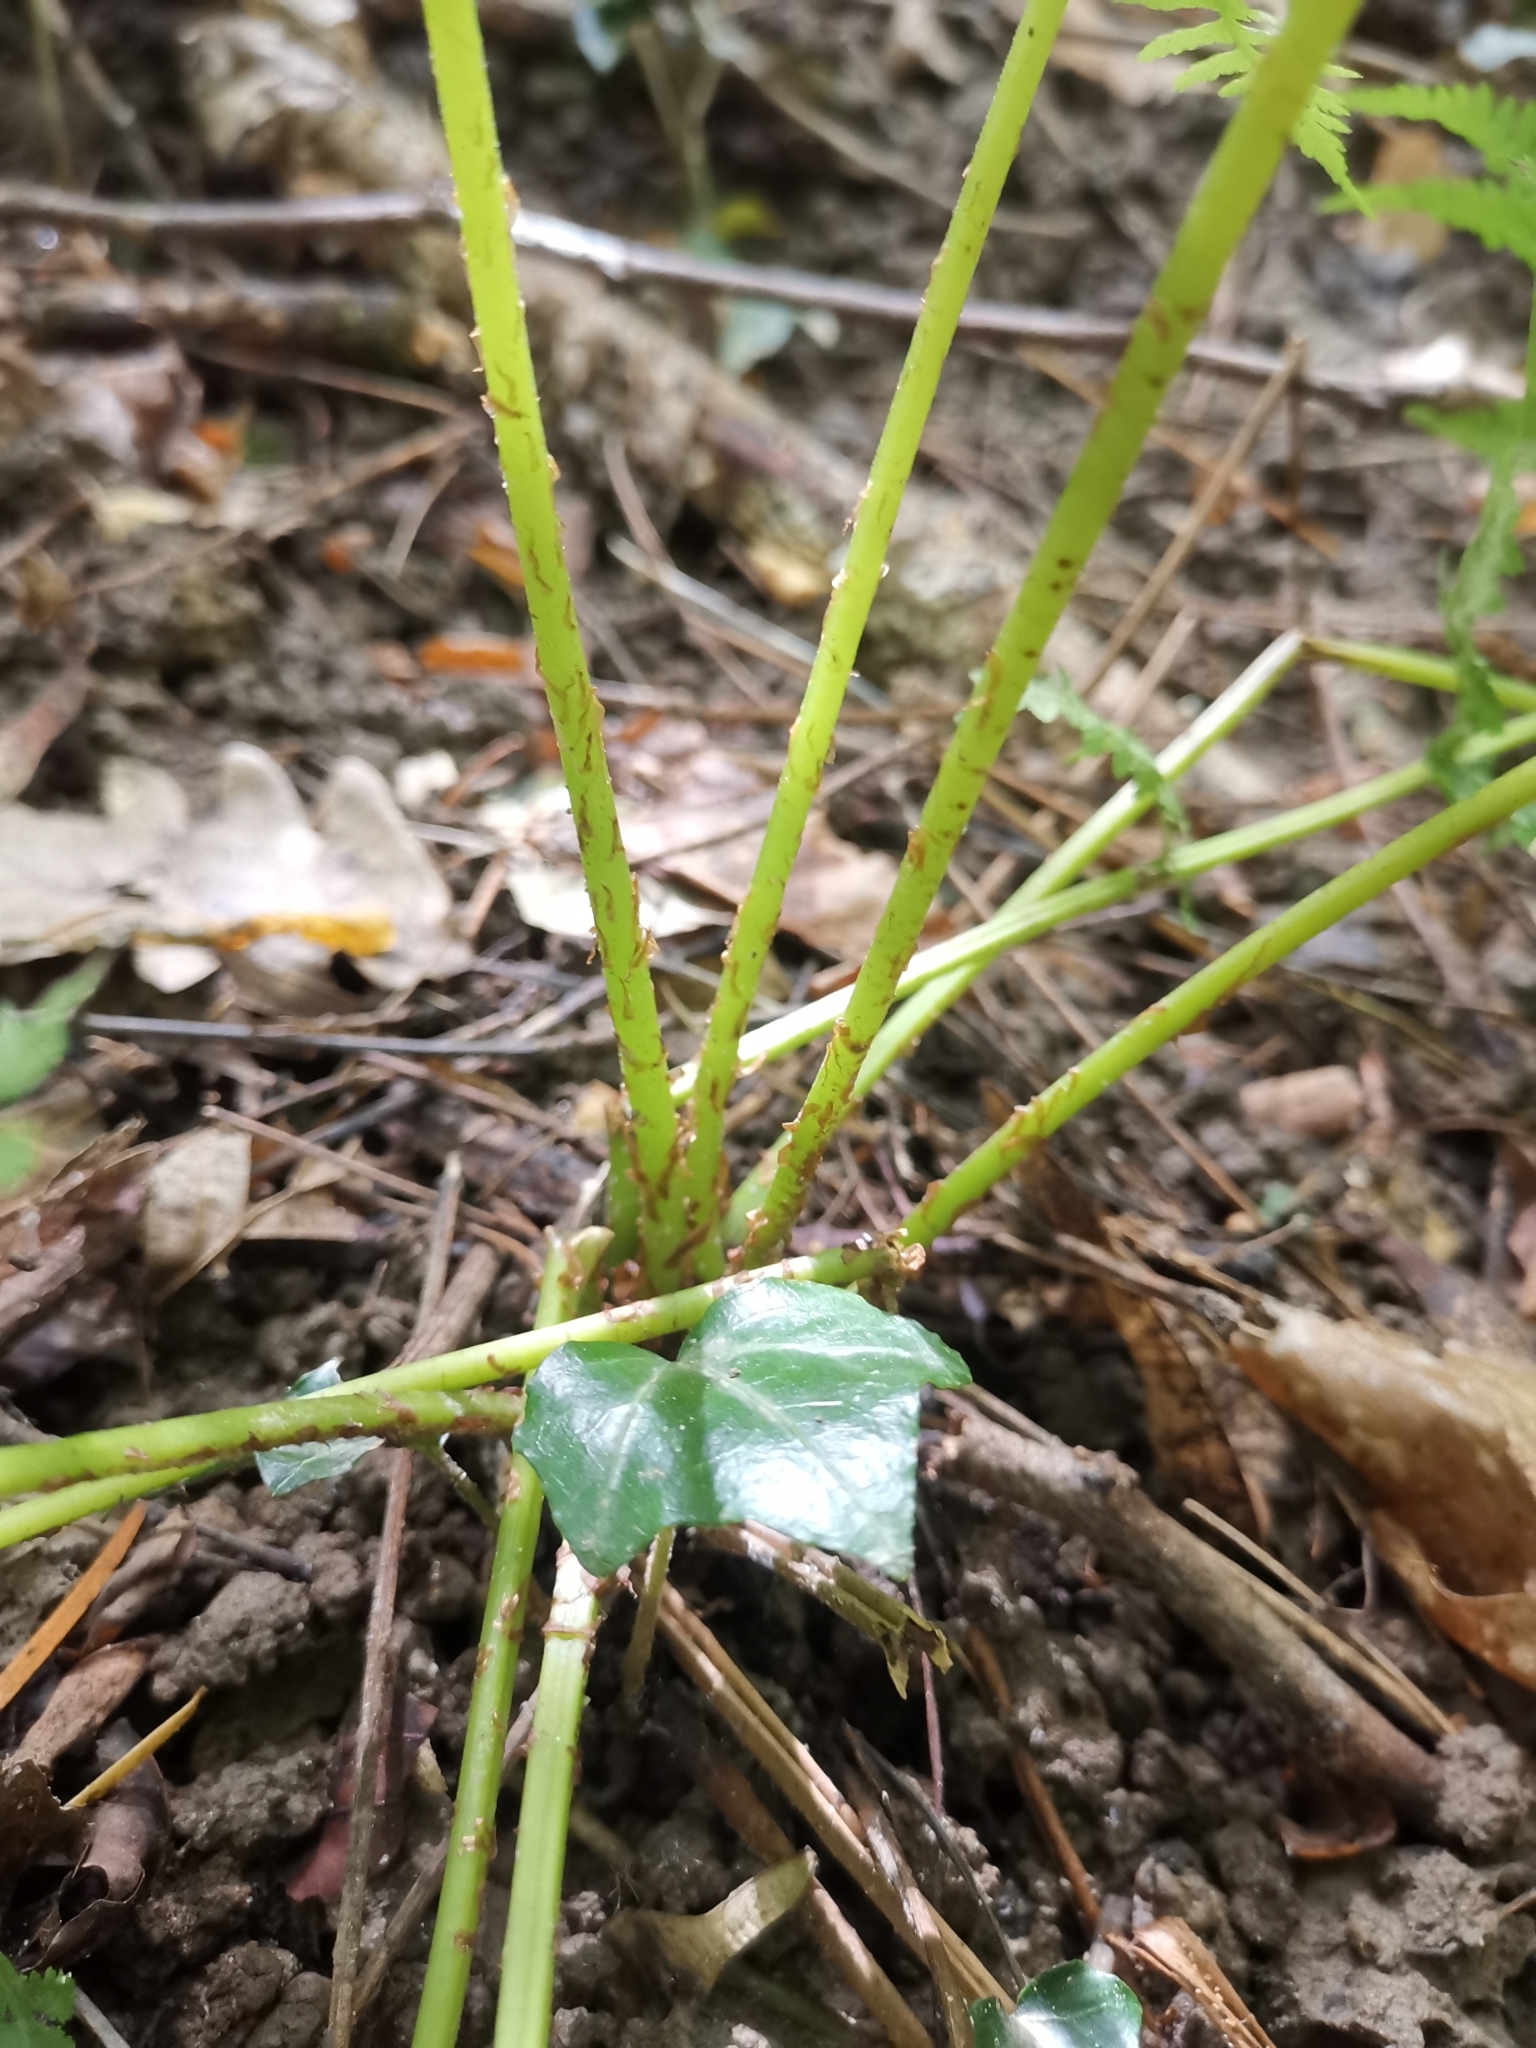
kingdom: Plantae
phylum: Tracheophyta
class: Polypodiopsida
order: Polypodiales
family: Athyriaceae
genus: Athyrium
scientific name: Athyrium filix-femina
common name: Lady fern
